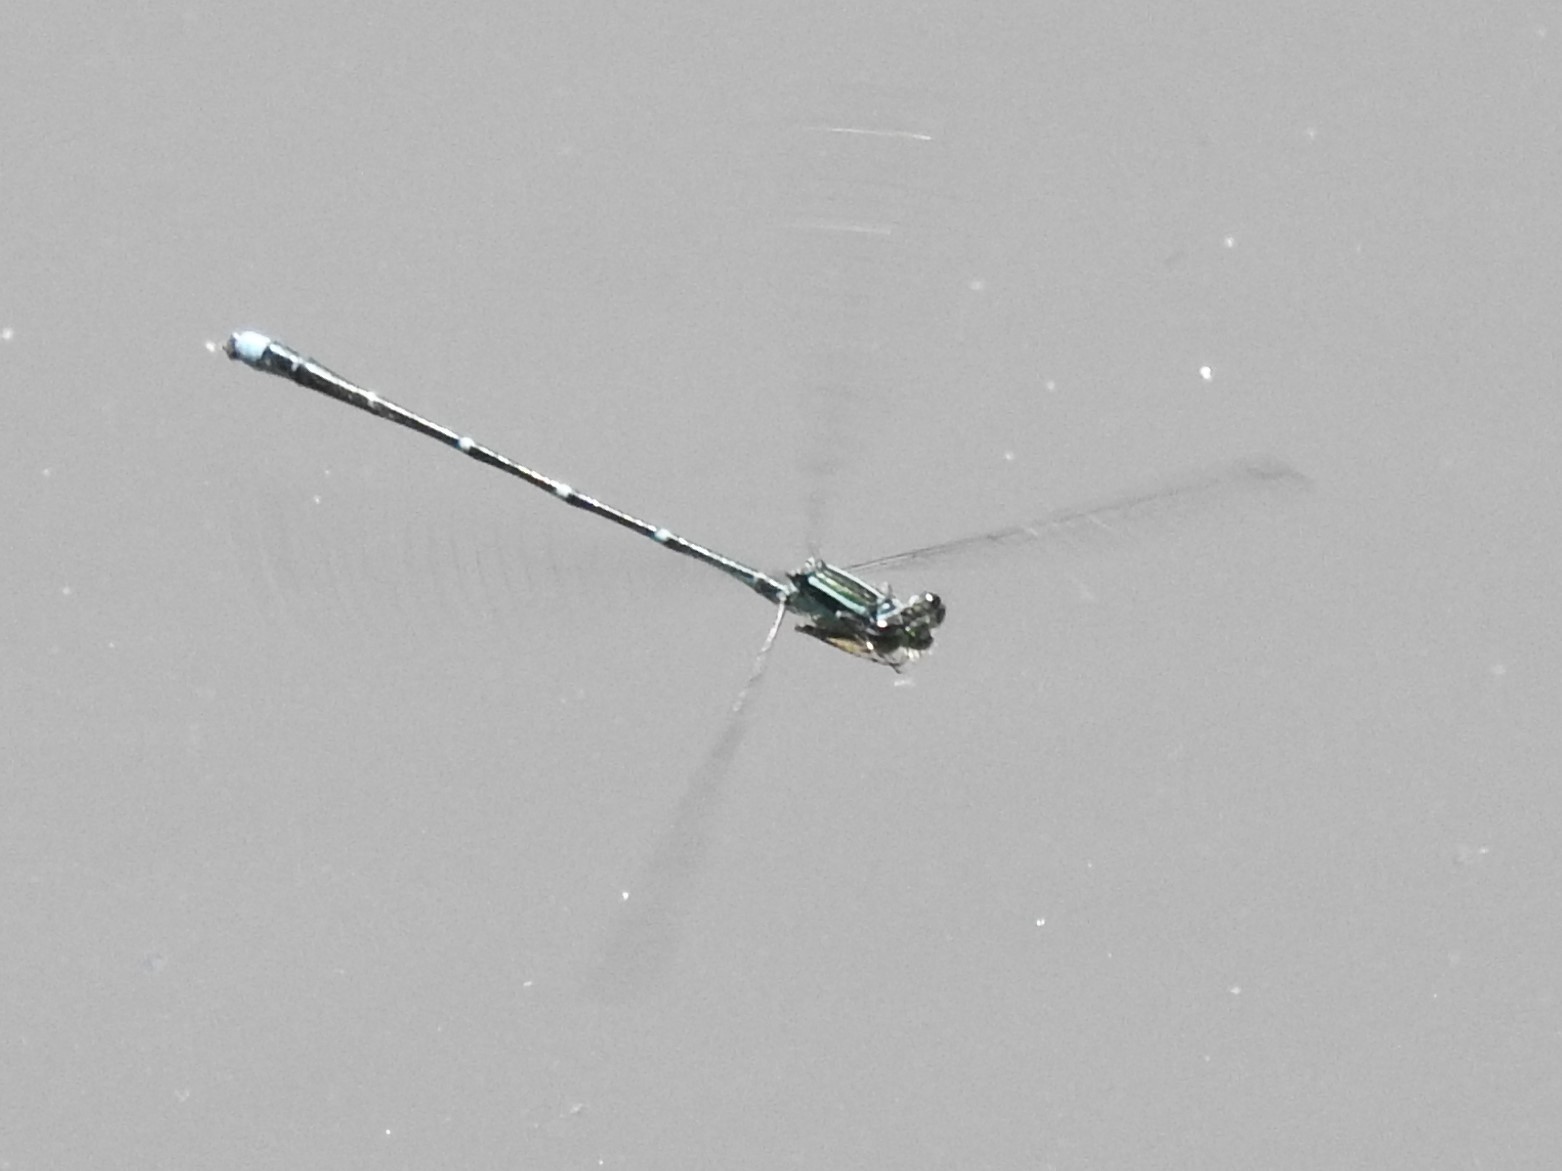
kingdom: Animalia
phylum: Arthropoda
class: Insecta
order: Odonata
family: Coenagrionidae
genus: Enallagma
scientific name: Enallagma exsulans
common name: Stream bluet
